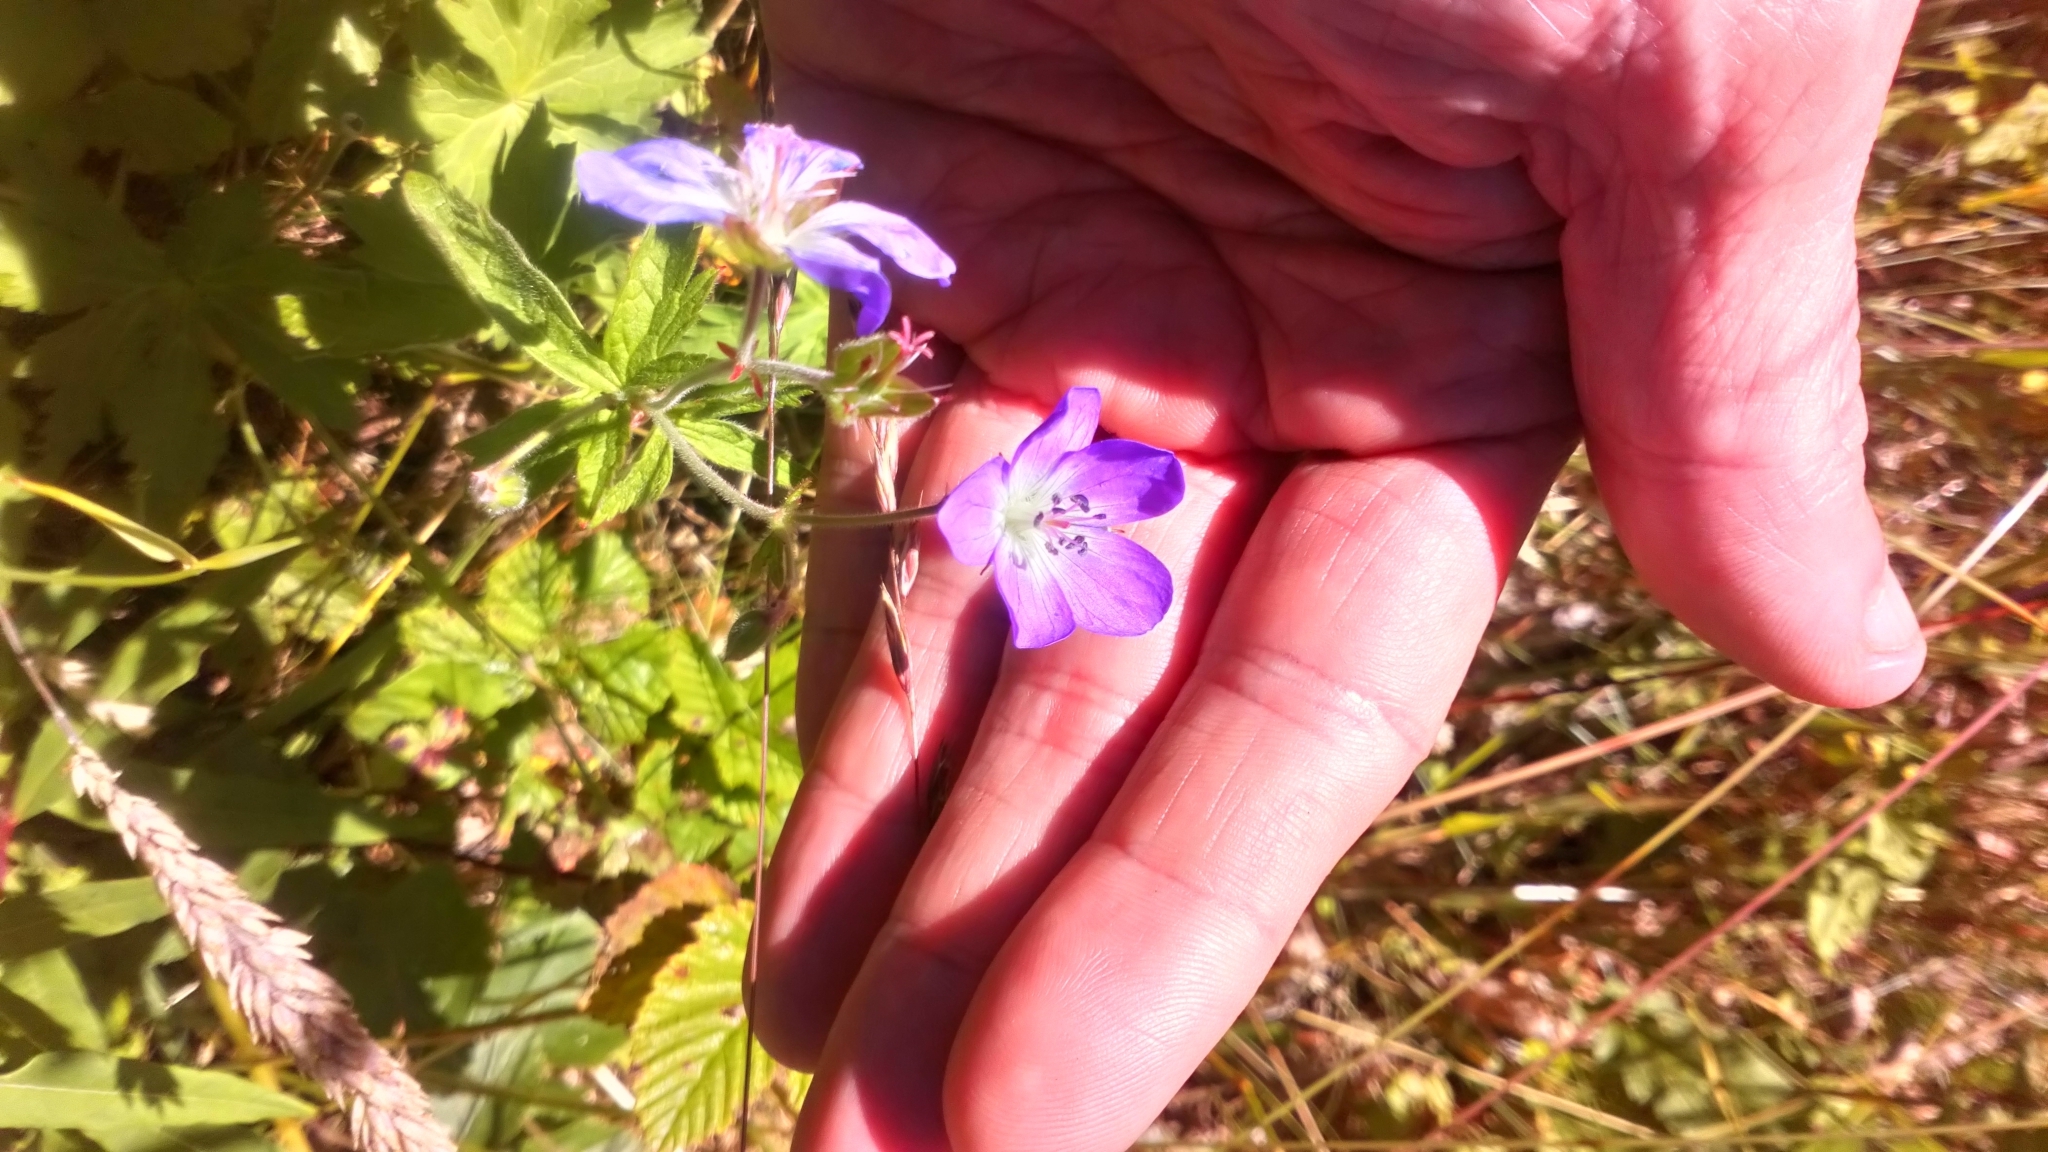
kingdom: Plantae
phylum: Tracheophyta
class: Magnoliopsida
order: Geraniales
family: Geraniaceae
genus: Geranium
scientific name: Geranium sylvaticum
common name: Wood crane's-bill
